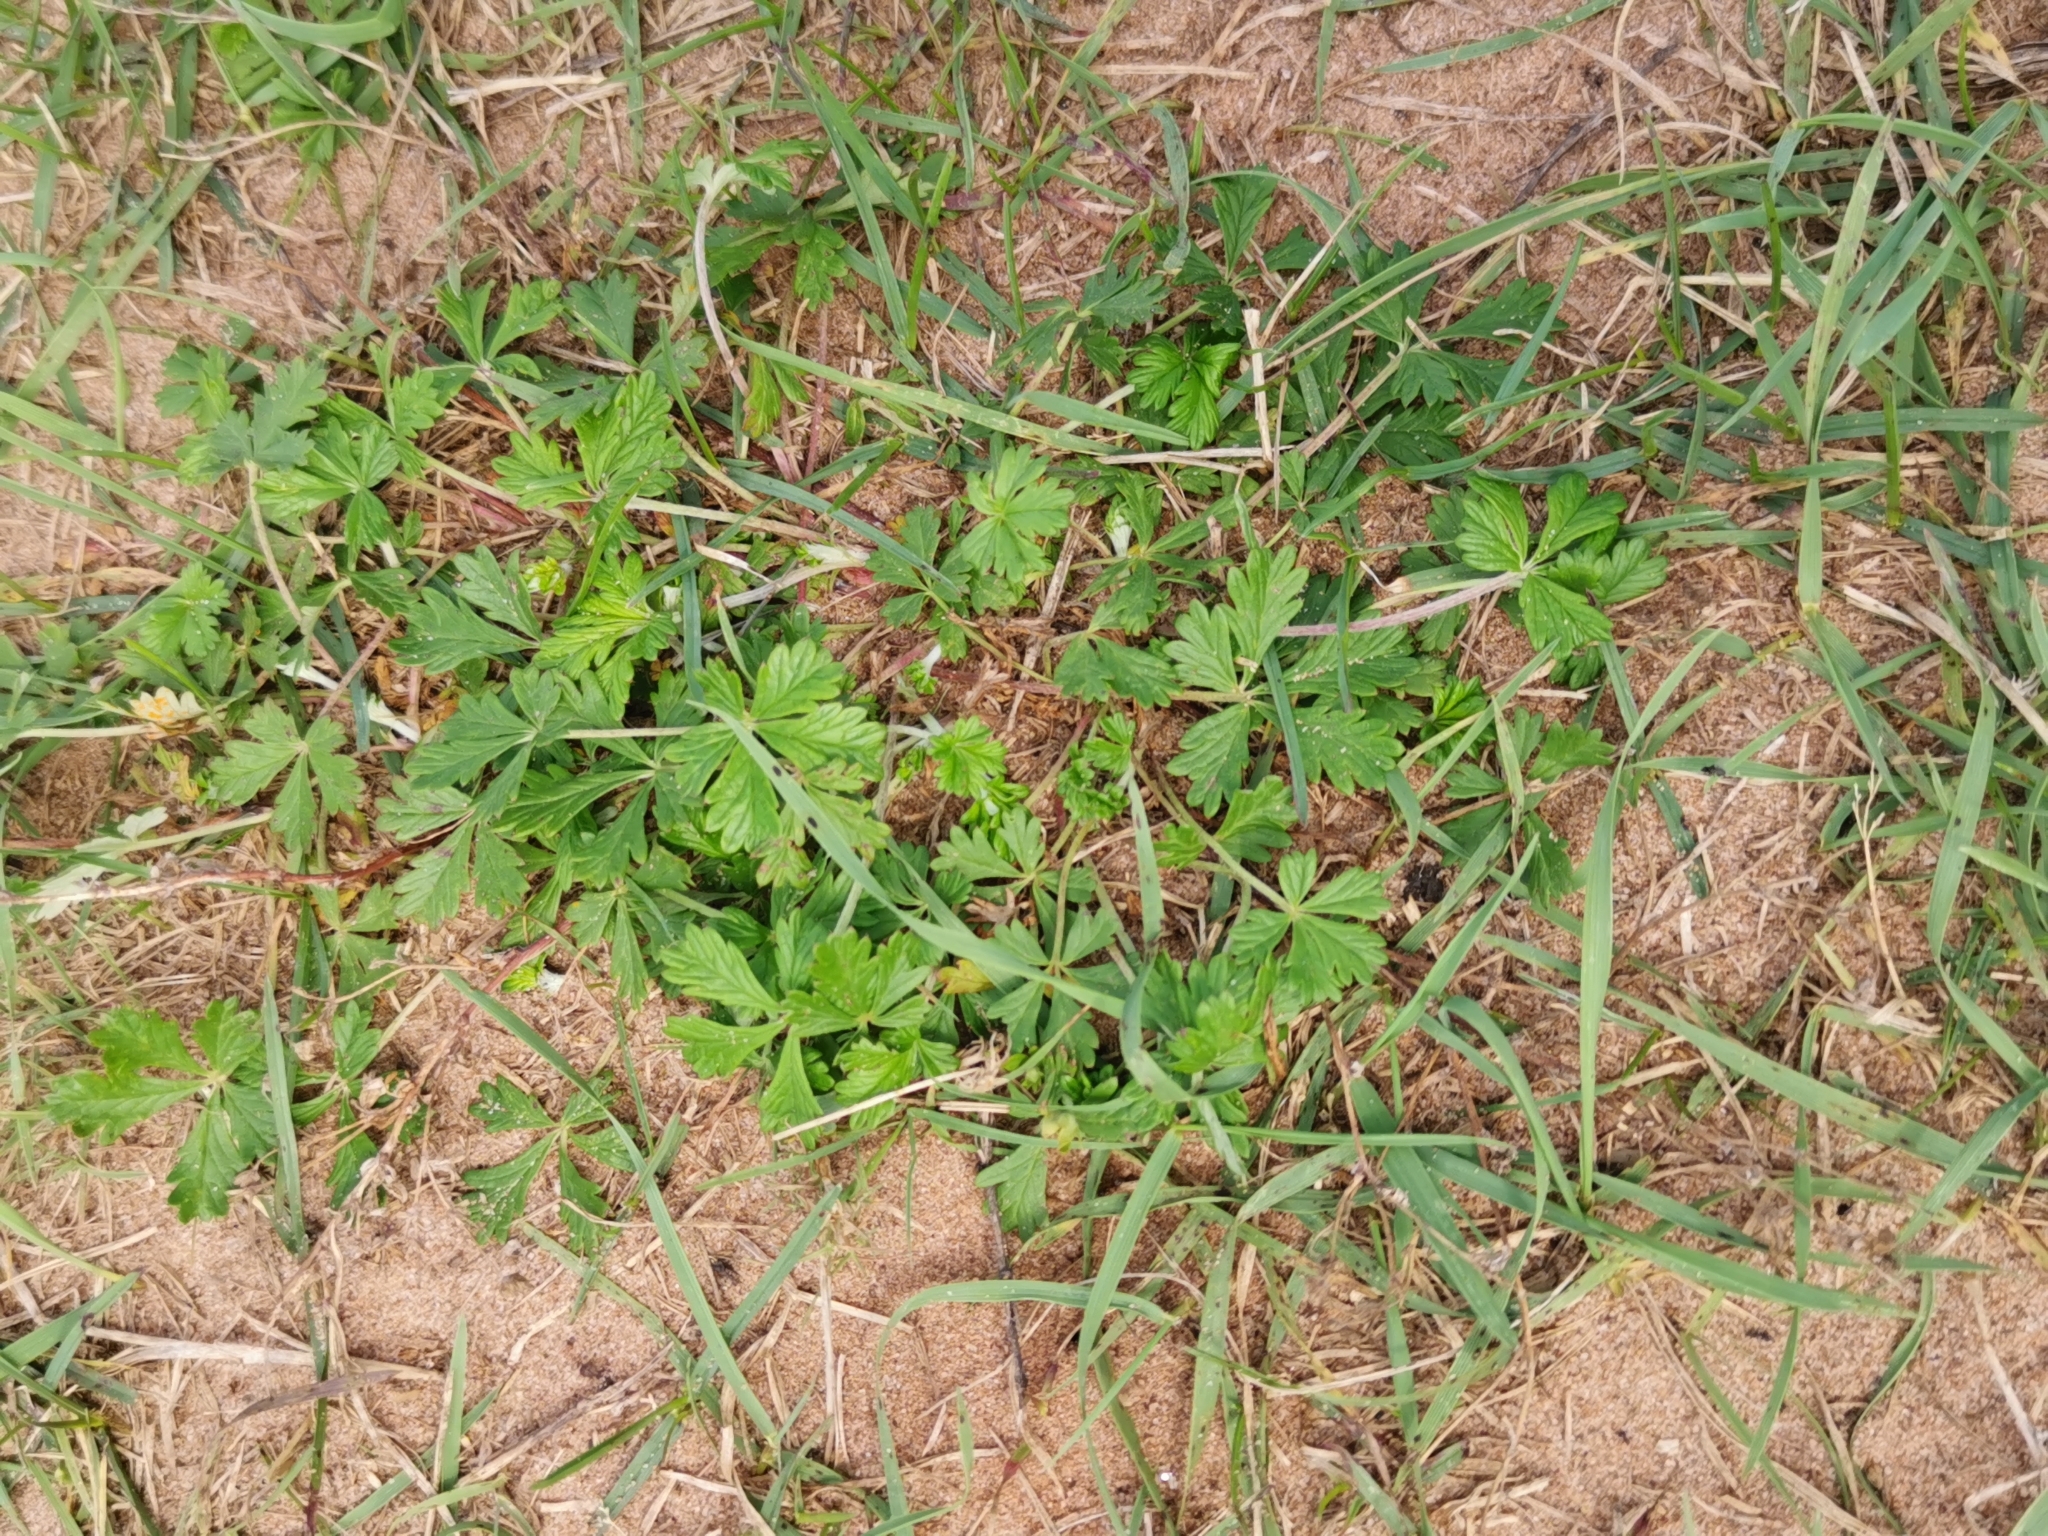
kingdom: Plantae
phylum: Tracheophyta
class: Magnoliopsida
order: Rosales
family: Rosaceae
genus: Potentilla
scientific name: Potentilla argentea
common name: Hoary cinquefoil
